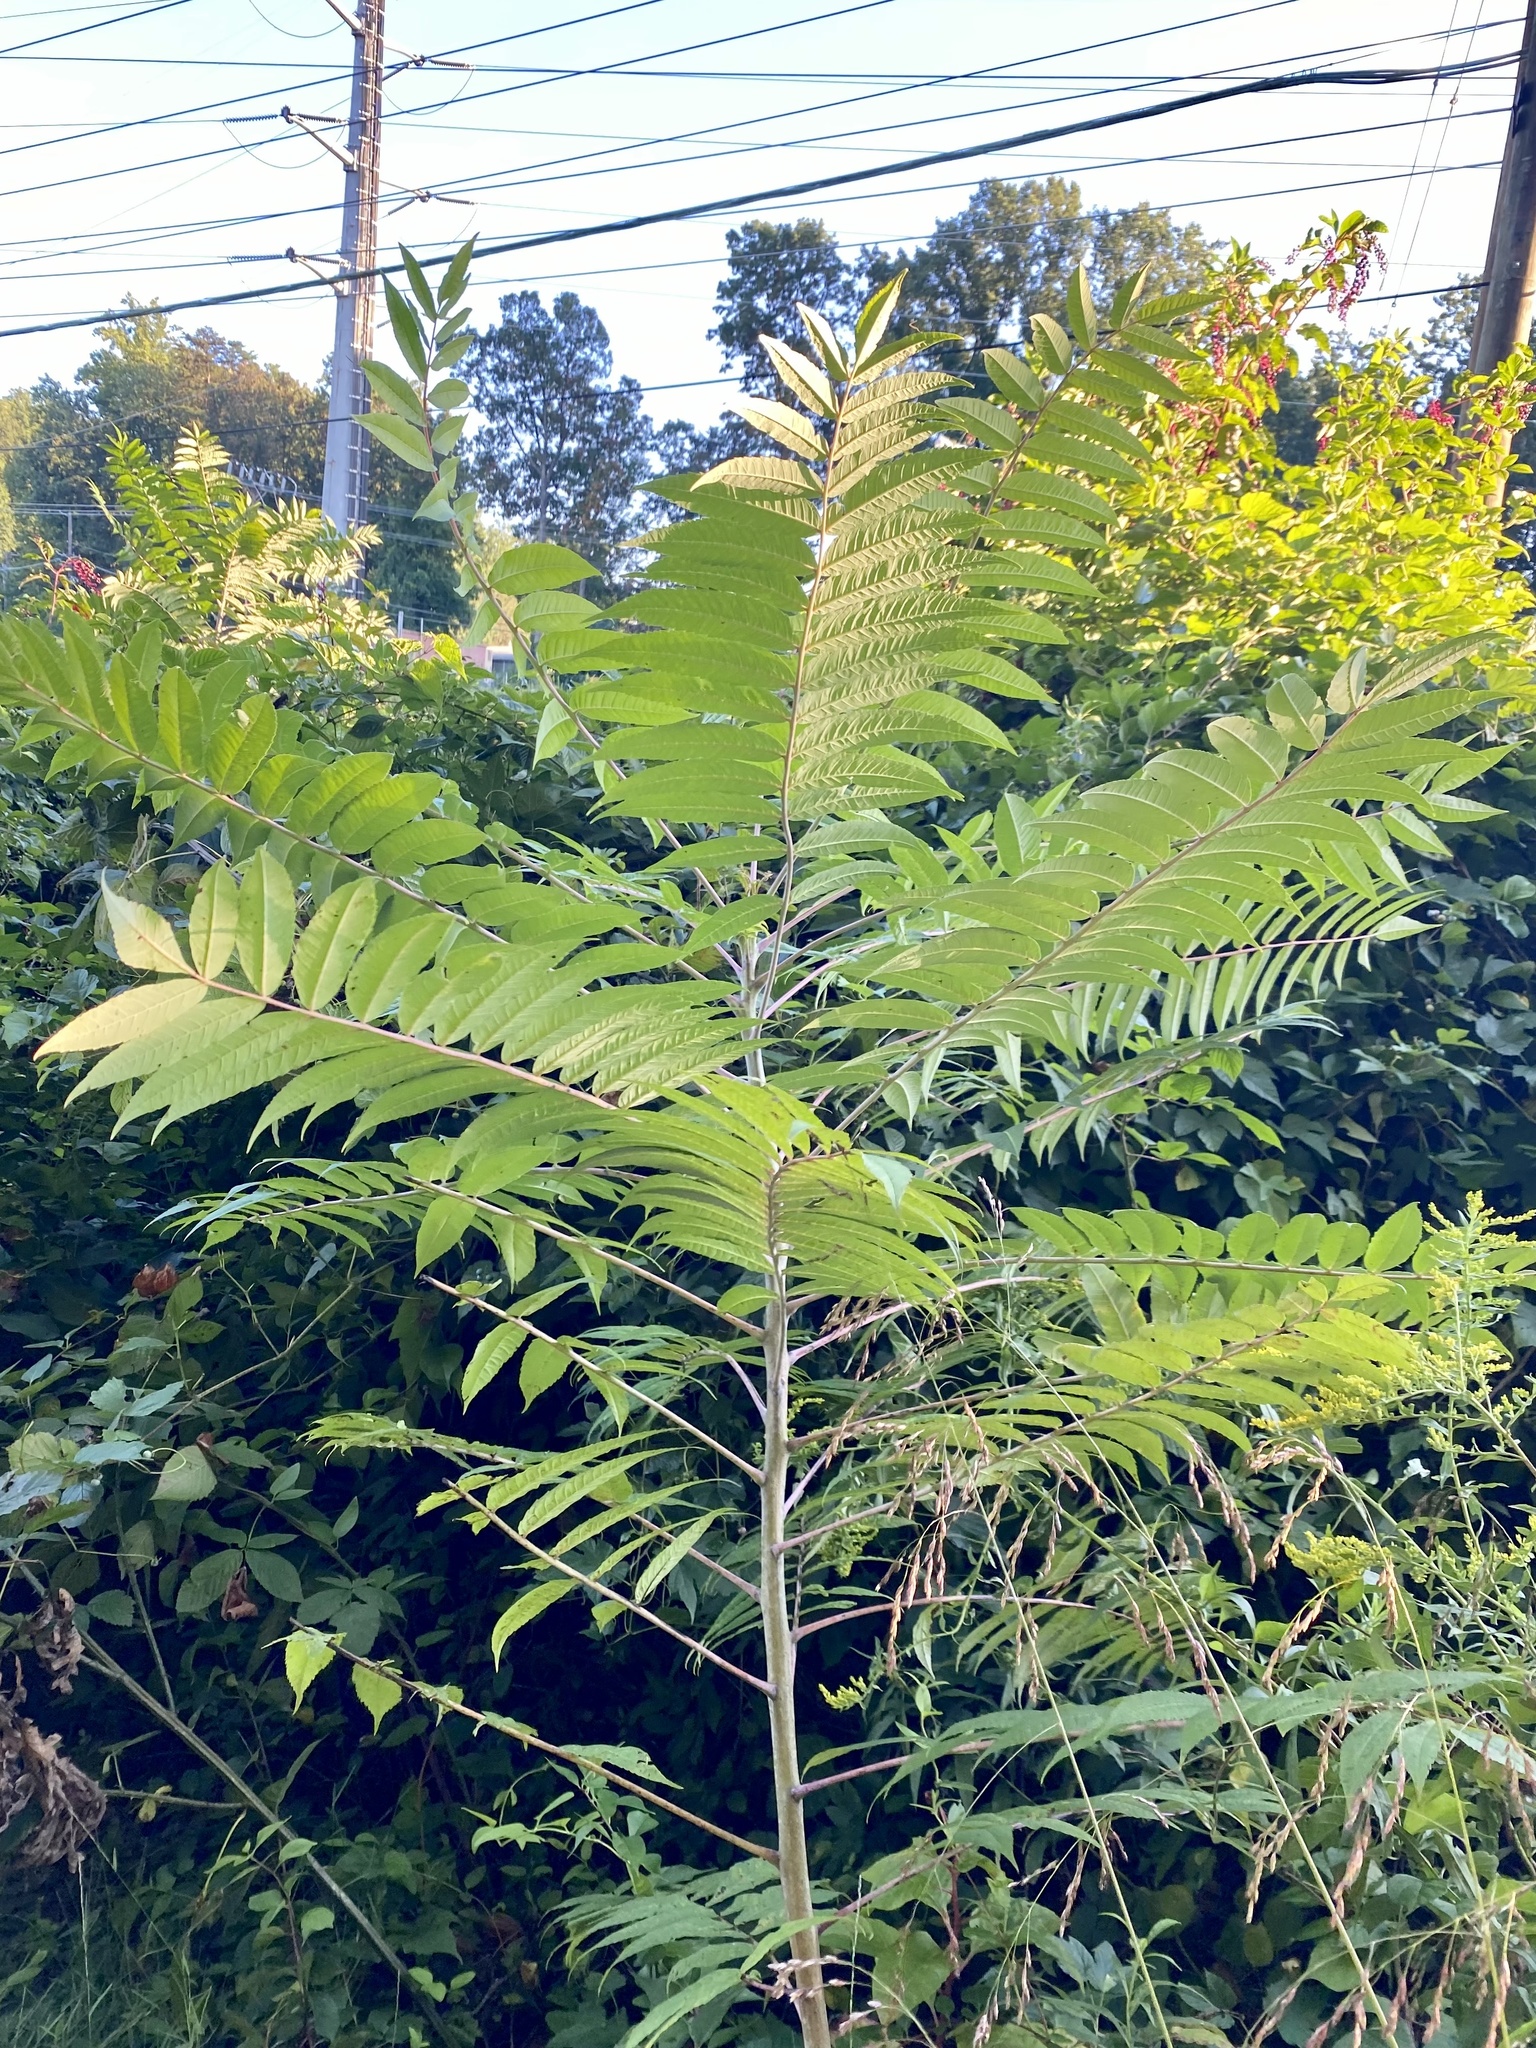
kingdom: Plantae
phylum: Tracheophyta
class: Magnoliopsida
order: Sapindales
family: Anacardiaceae
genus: Rhus
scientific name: Rhus glabra
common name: Scarlet sumac
